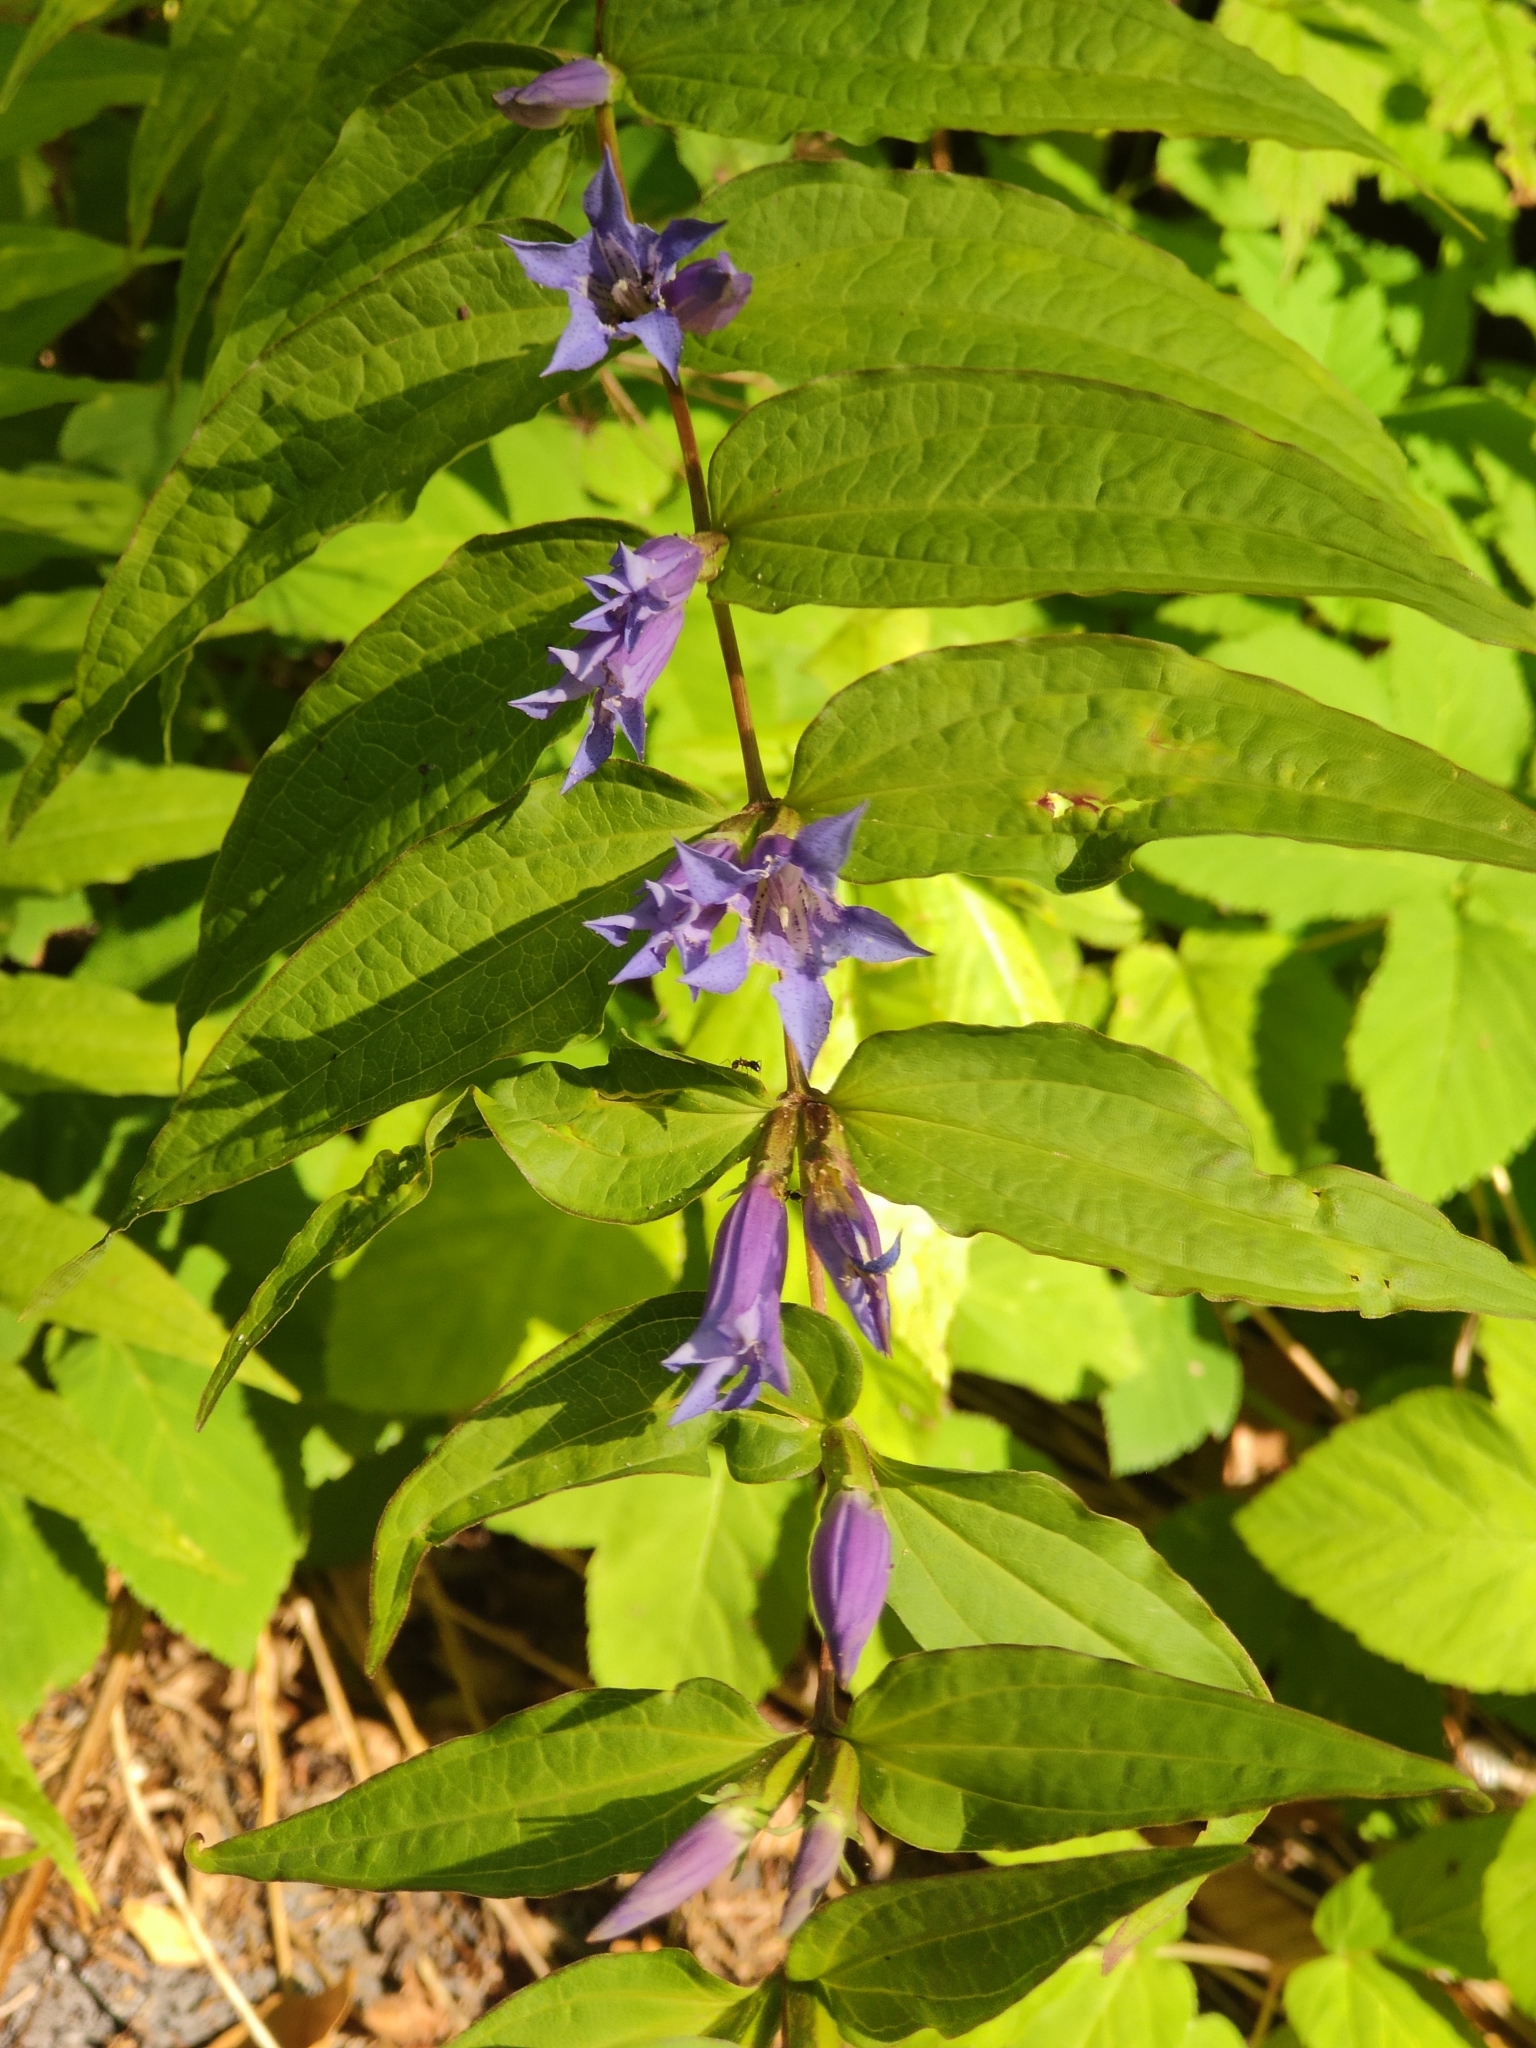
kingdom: Plantae
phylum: Tracheophyta
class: Magnoliopsida
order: Gentianales
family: Gentianaceae
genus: Gentiana
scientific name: Gentiana asclepiadea
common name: Willow gentian
